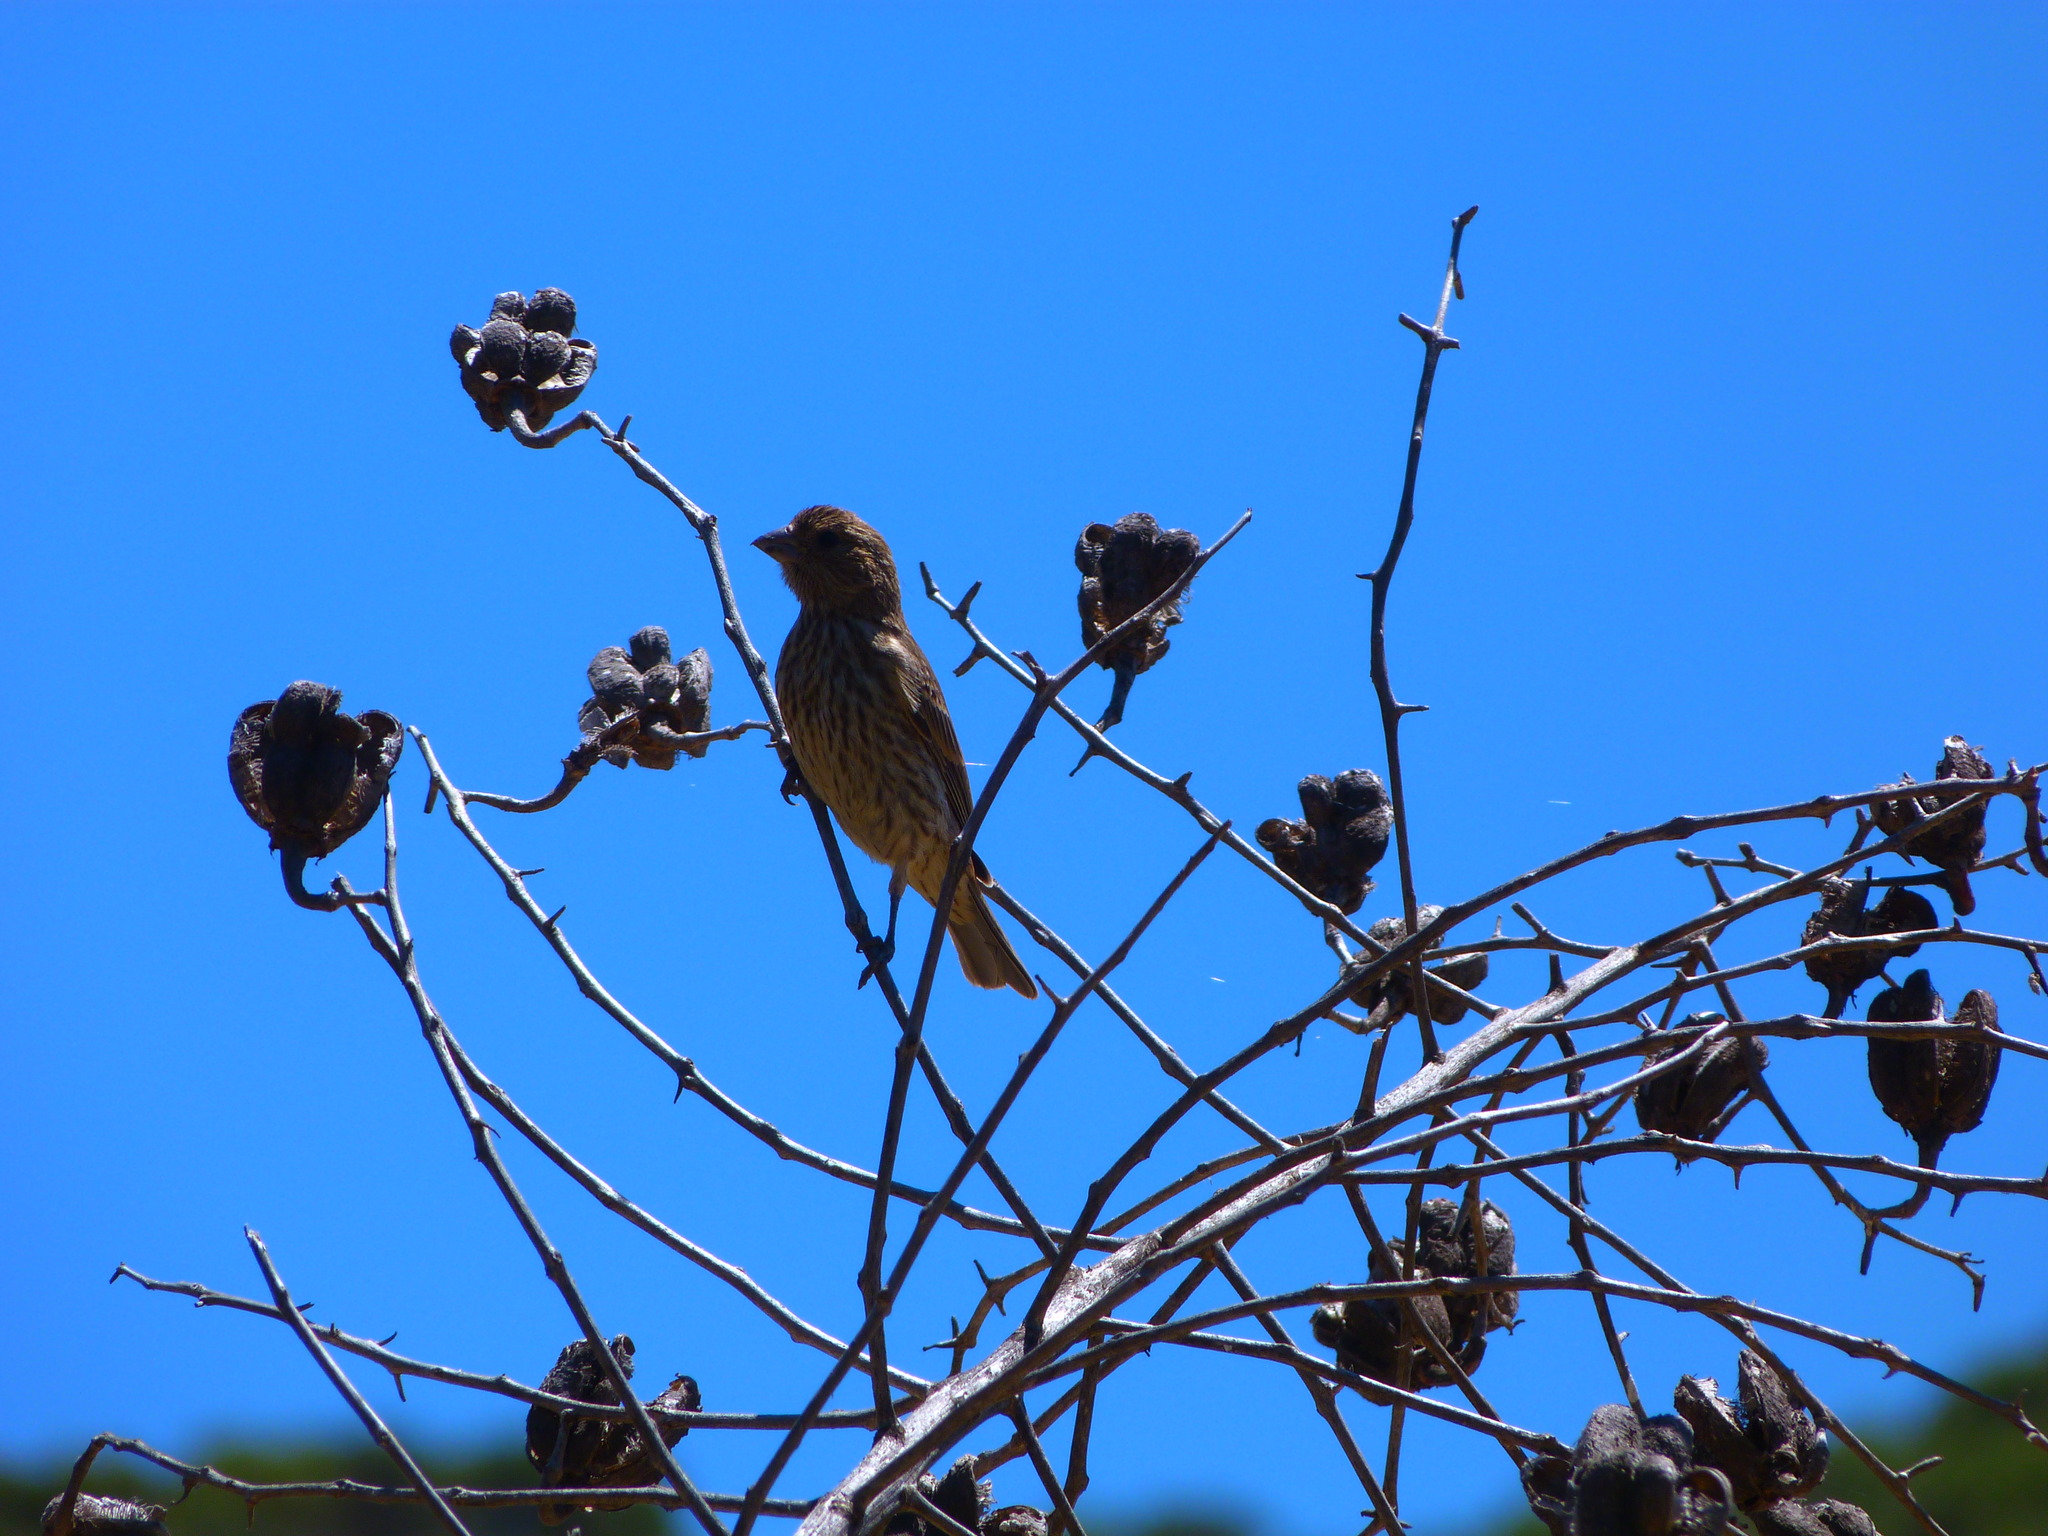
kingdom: Animalia
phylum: Chordata
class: Aves
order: Passeriformes
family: Fringillidae
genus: Haemorhous
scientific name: Haemorhous mexicanus
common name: House finch
